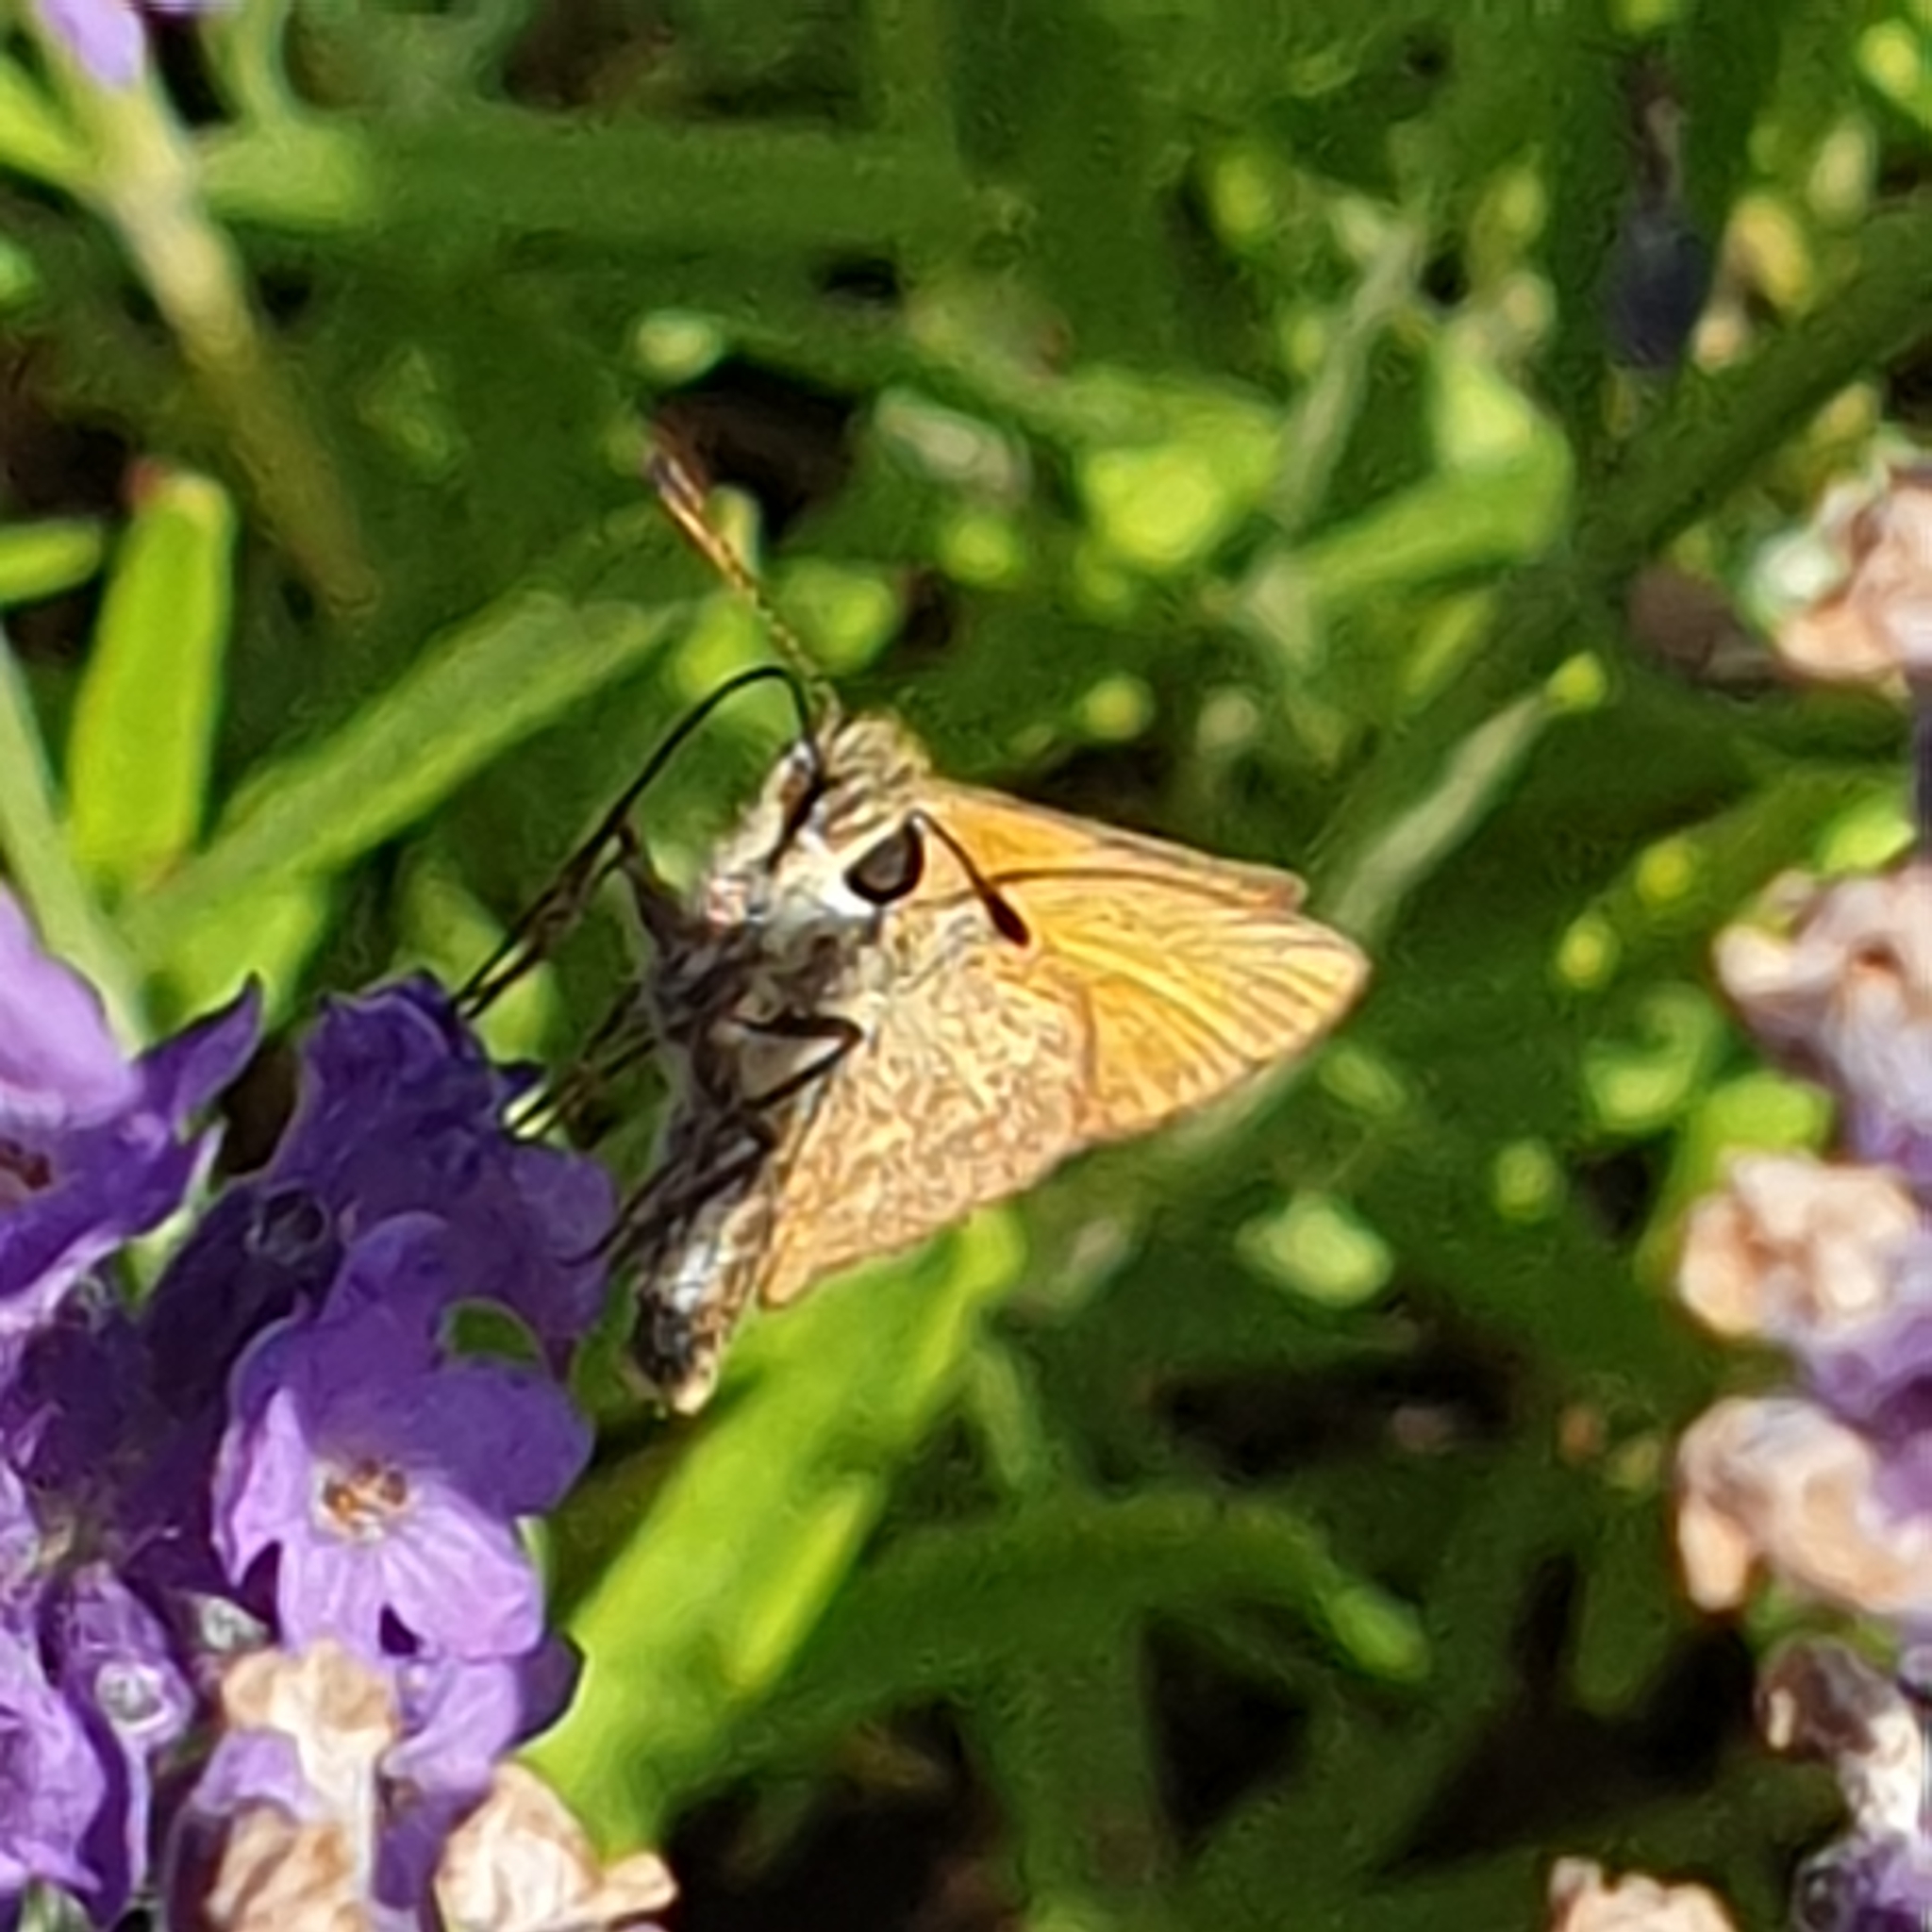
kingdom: Animalia
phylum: Arthropoda
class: Insecta
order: Lepidoptera
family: Hesperiidae
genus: Thymelicus
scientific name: Thymelicus lineola
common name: Essex skipper
